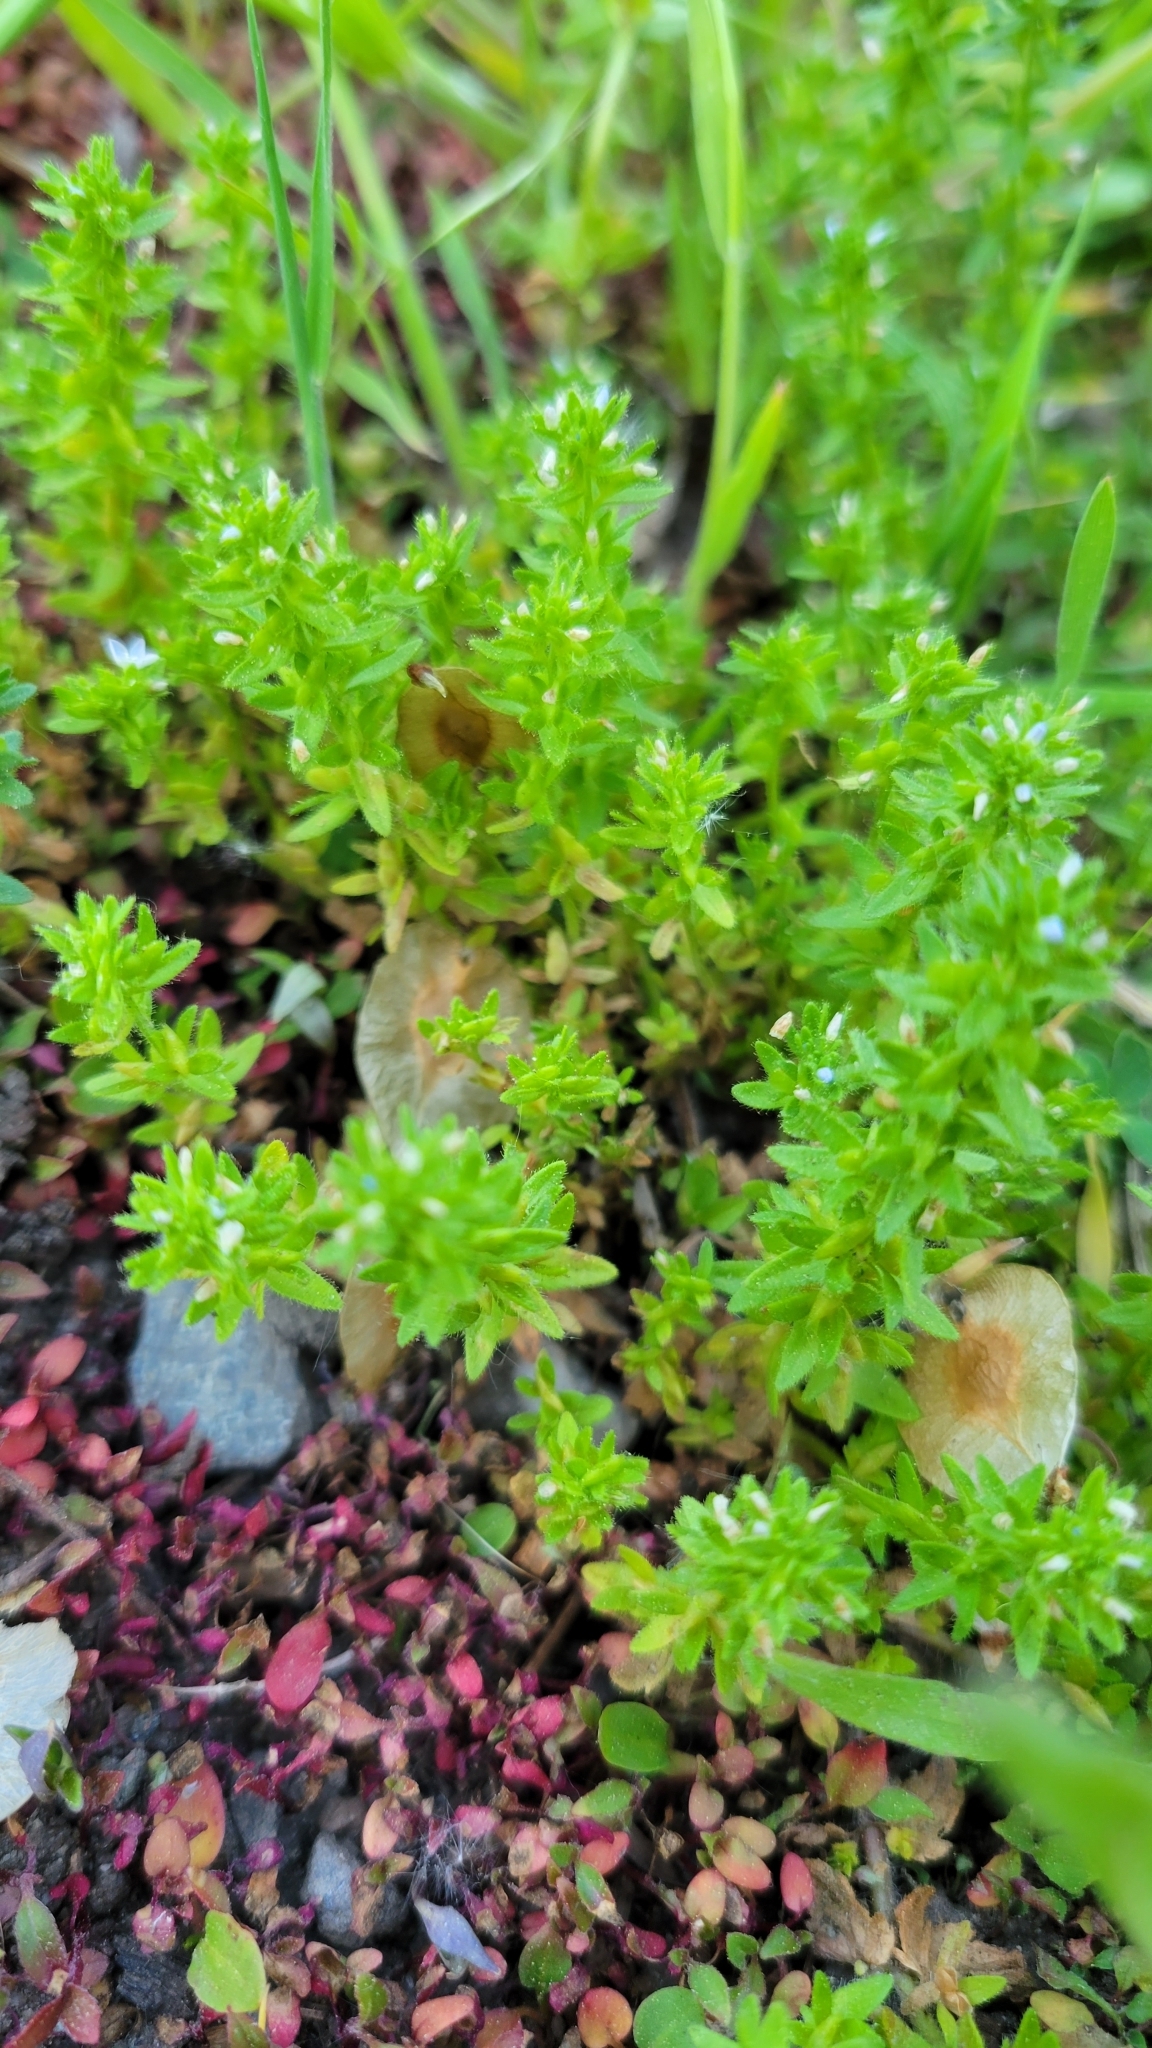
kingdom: Plantae
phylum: Tracheophyta
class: Magnoliopsida
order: Lamiales
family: Plantaginaceae
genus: Veronica
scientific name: Veronica arvensis
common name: Corn speedwell
